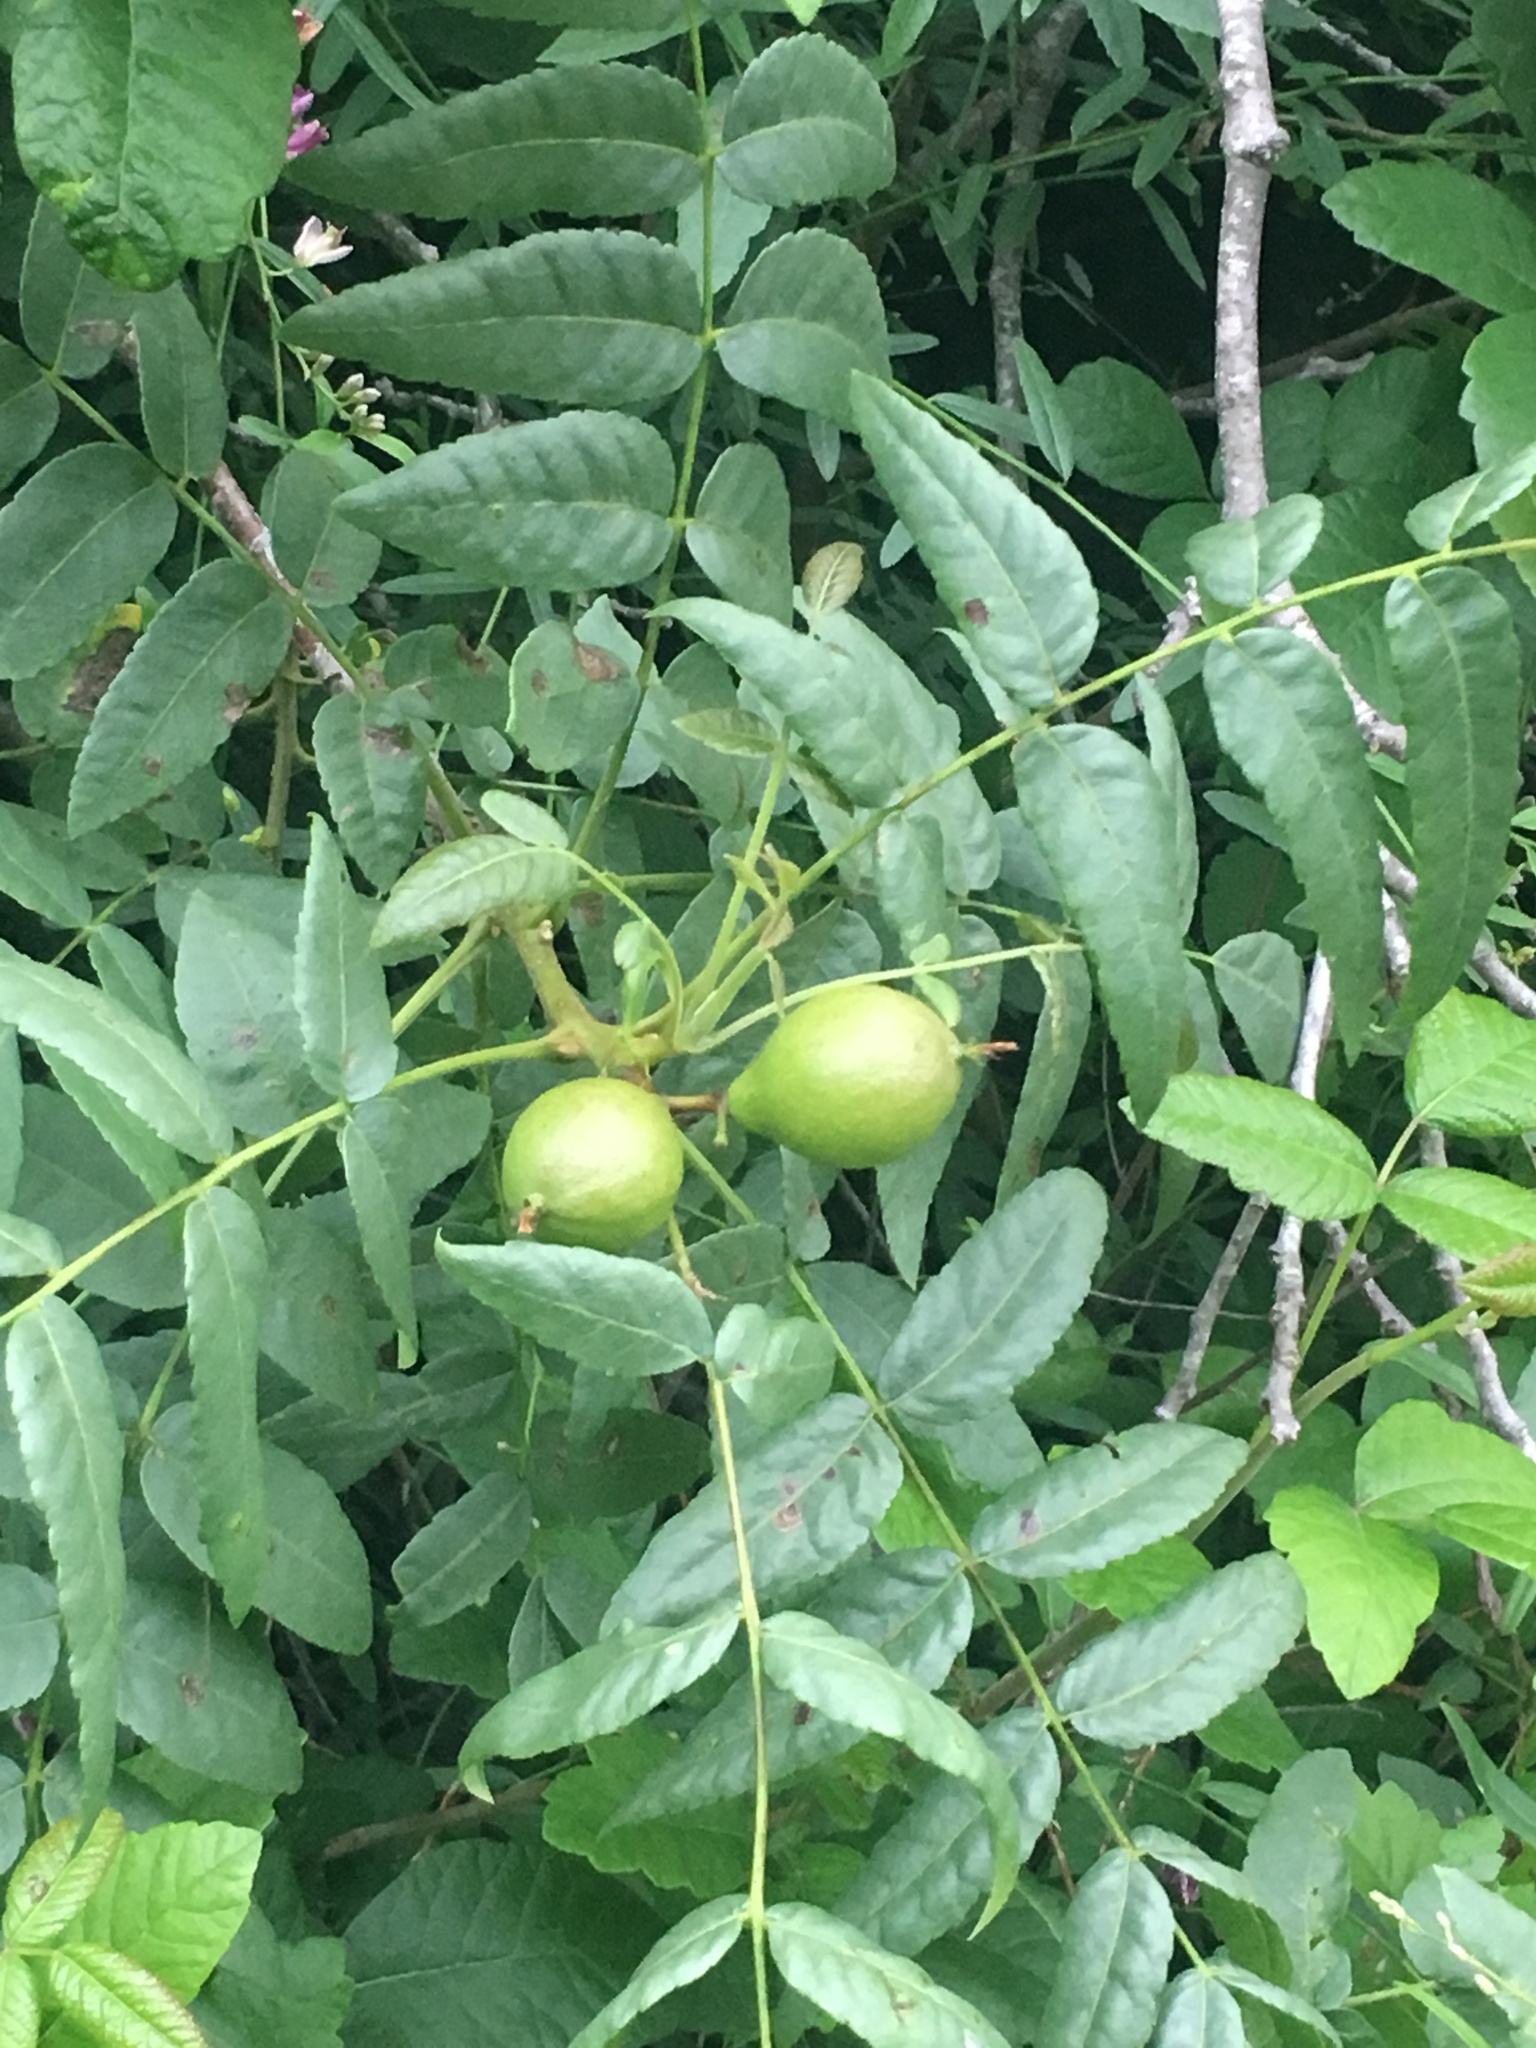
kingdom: Plantae
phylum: Tracheophyta
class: Magnoliopsida
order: Fagales
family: Juglandaceae
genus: Juglans
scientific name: Juglans californica
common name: Southern california black walnut
